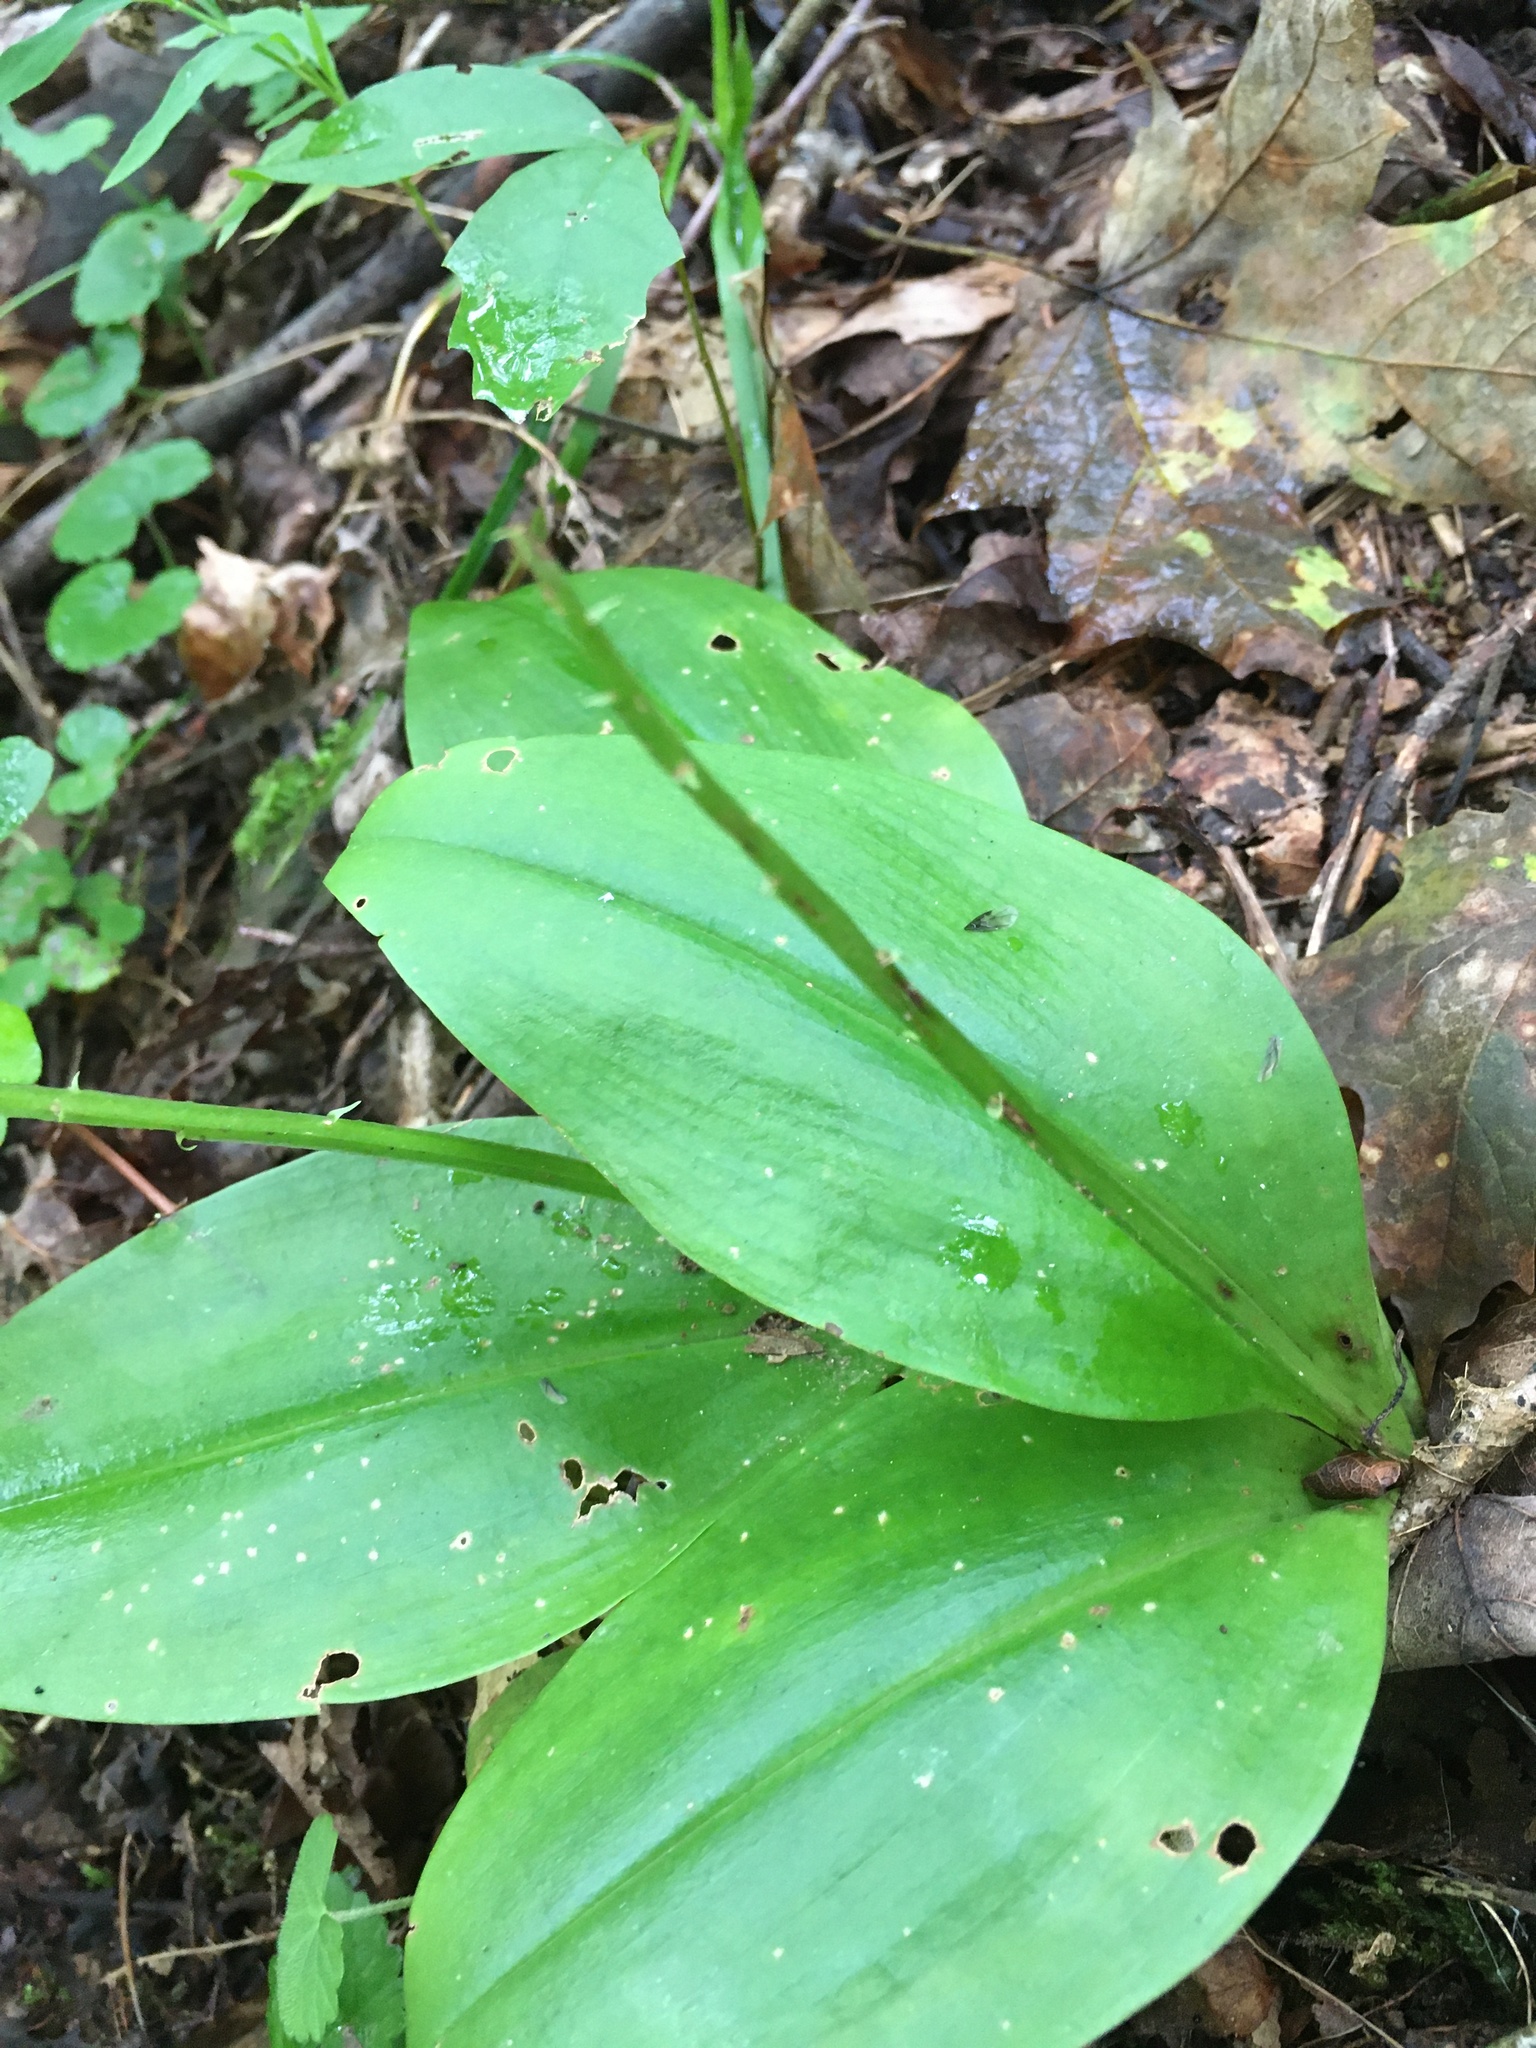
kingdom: Plantae
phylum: Tracheophyta
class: Liliopsida
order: Asparagales
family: Orchidaceae
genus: Liparis
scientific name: Liparis liliifolia
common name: Brown wide-lip orchid
